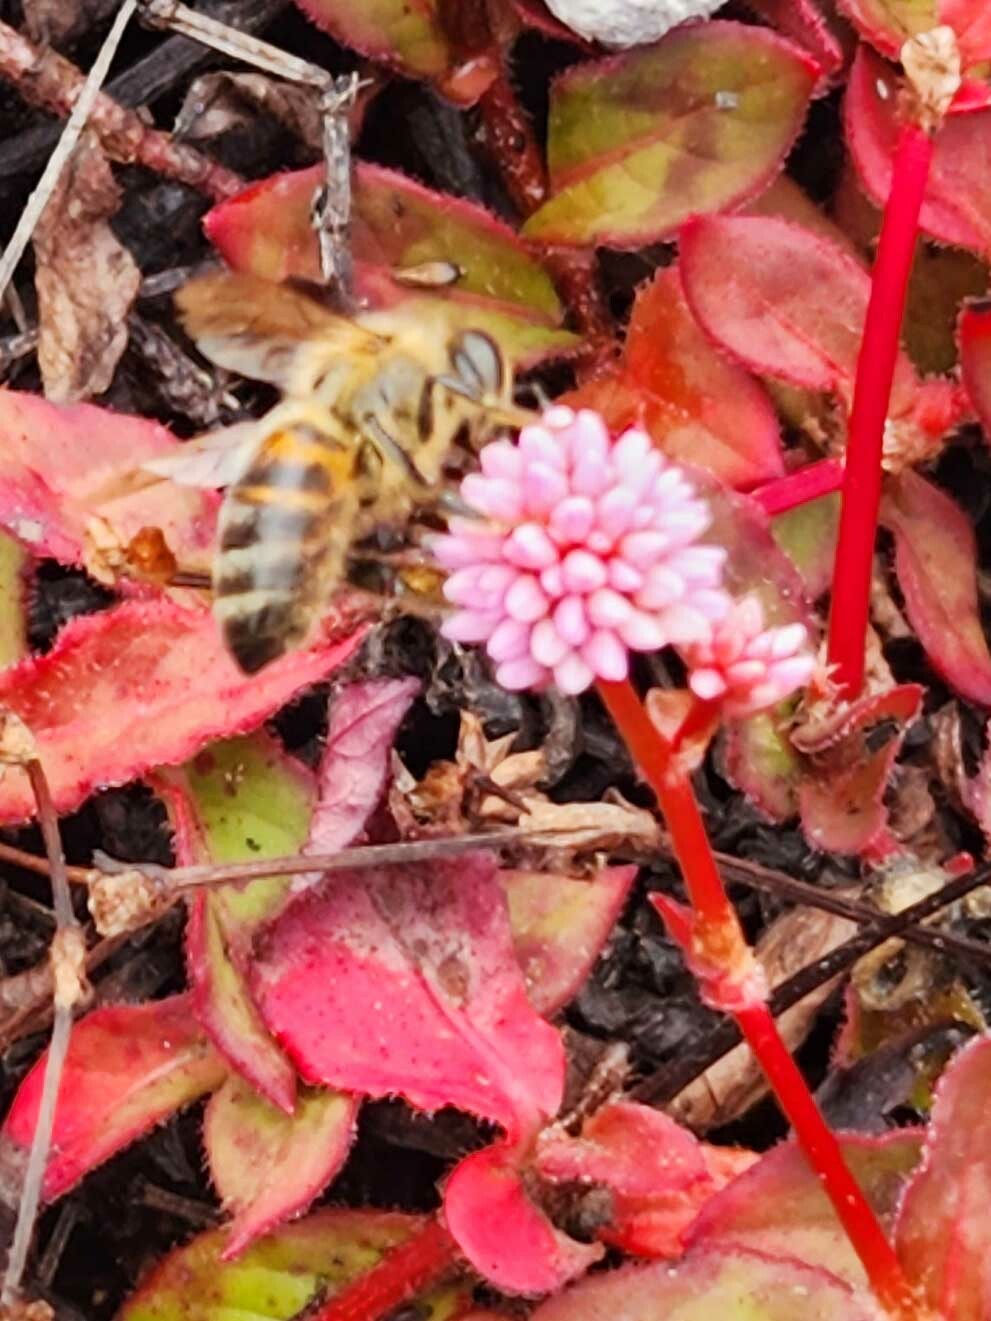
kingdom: Animalia
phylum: Arthropoda
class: Insecta
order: Hymenoptera
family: Apidae
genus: Apis
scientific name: Apis mellifera
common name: Honey bee
